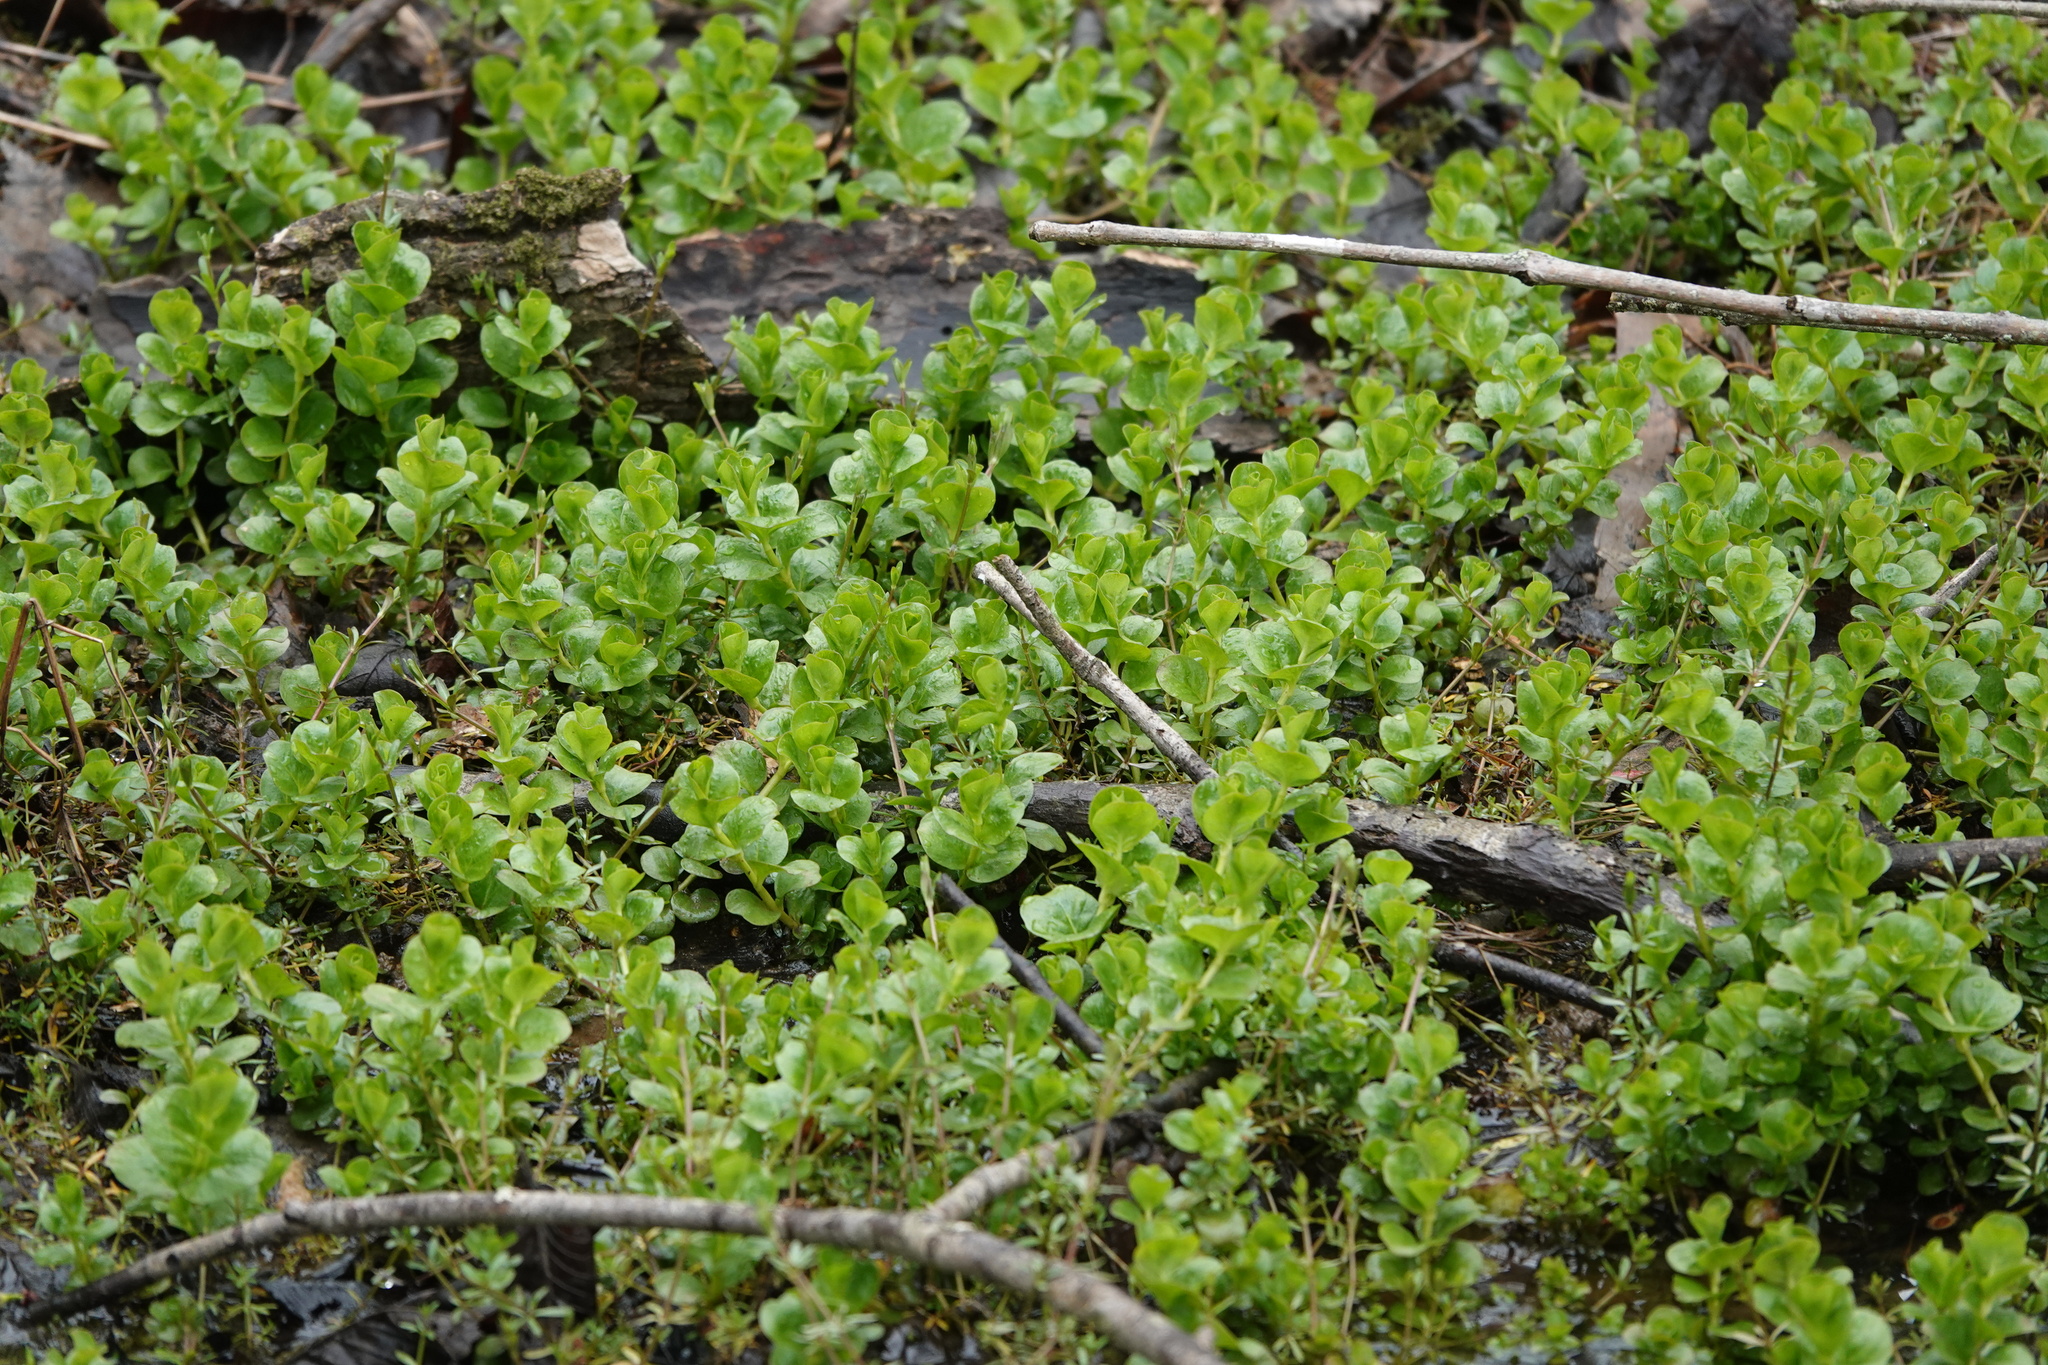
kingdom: Plantae
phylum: Tracheophyta
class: Magnoliopsida
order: Ericales
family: Primulaceae
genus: Lysimachia
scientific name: Lysimachia nummularia
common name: Moneywort
